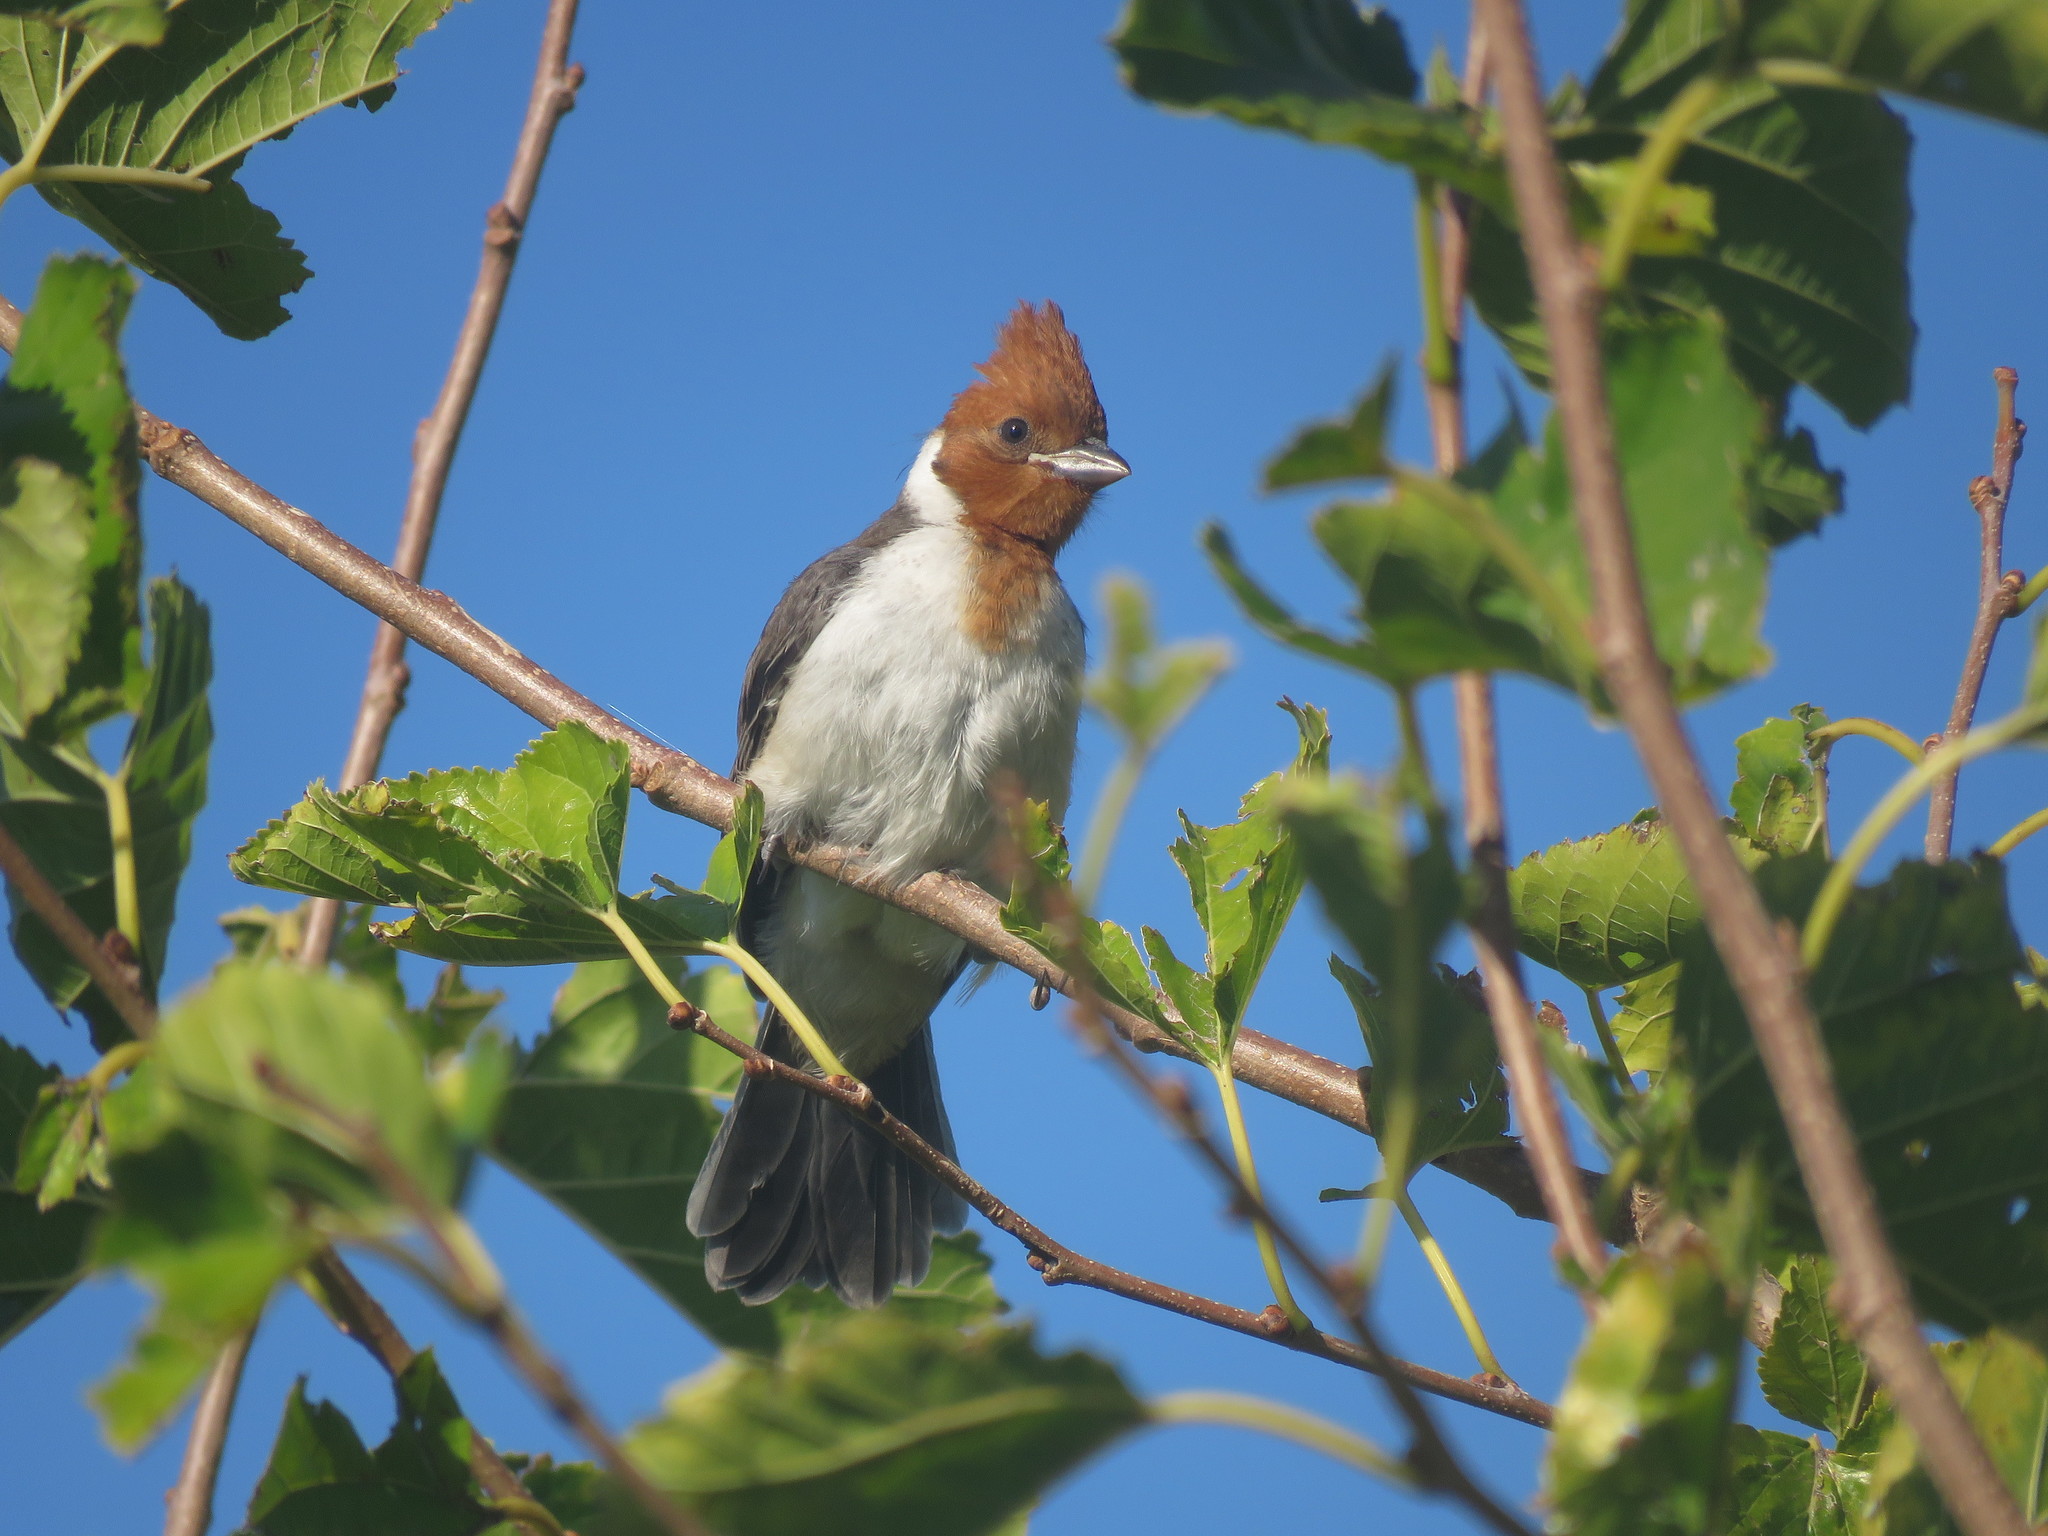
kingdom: Animalia
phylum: Chordata
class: Aves
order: Passeriformes
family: Thraupidae
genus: Paroaria
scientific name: Paroaria coronata
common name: Red-crested cardinal
